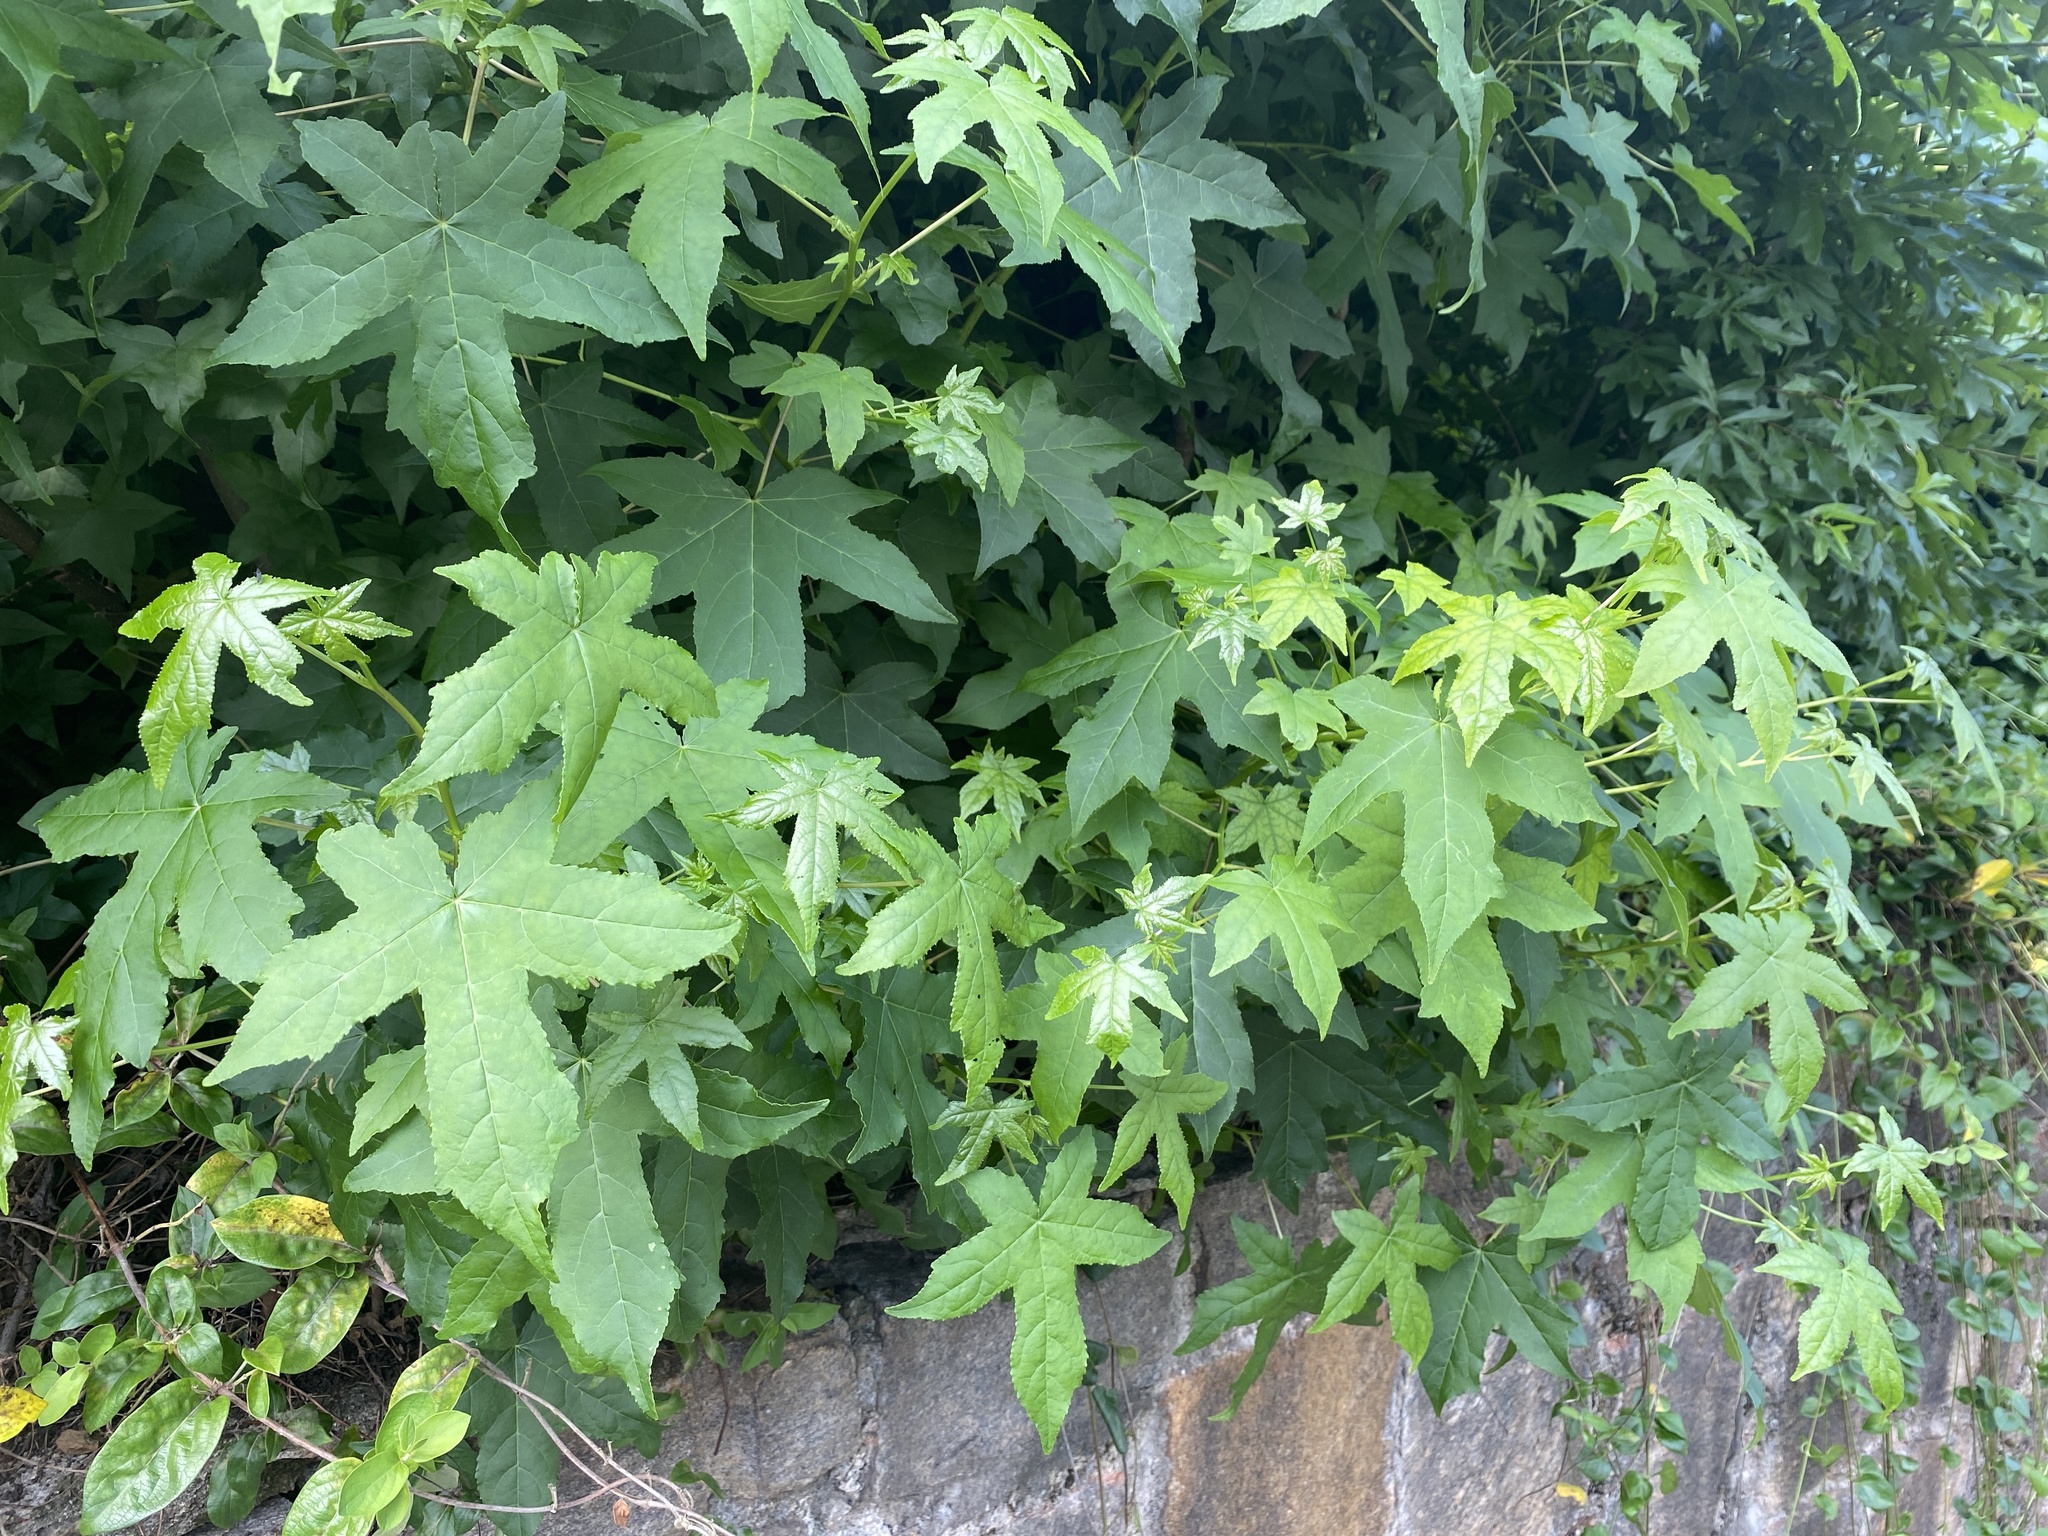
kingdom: Plantae
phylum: Tracheophyta
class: Magnoliopsida
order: Saxifragales
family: Altingiaceae
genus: Liquidambar
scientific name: Liquidambar styraciflua
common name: Sweet gum
